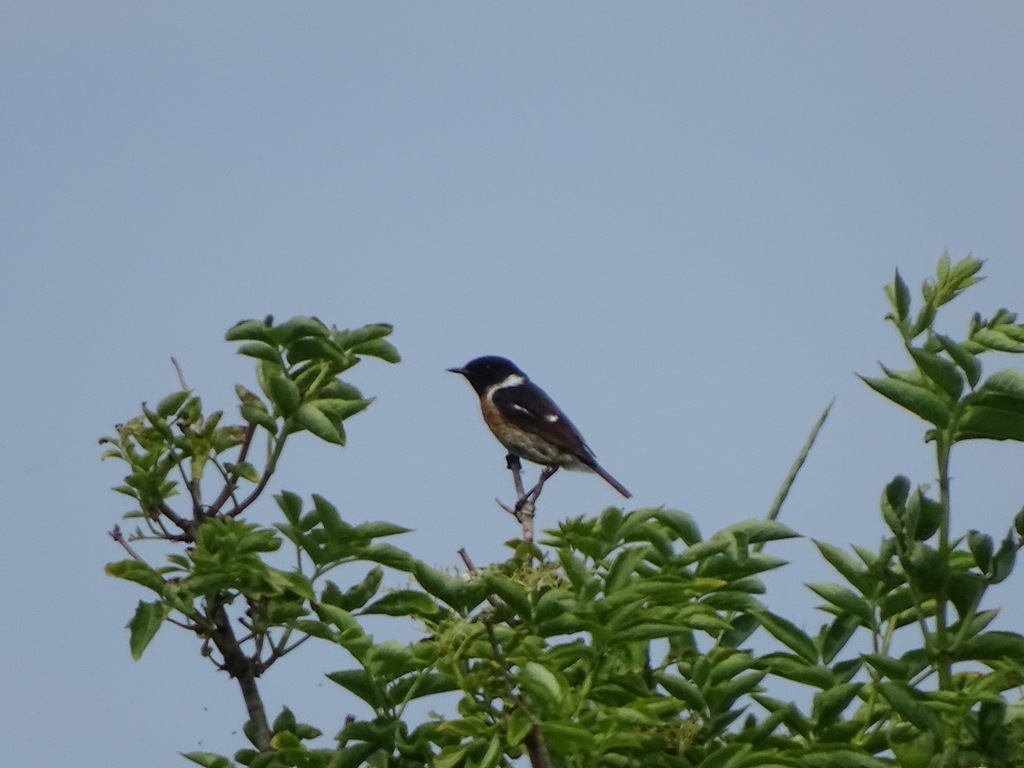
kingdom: Animalia
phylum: Chordata
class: Aves
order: Passeriformes
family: Muscicapidae
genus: Saxicola
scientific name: Saxicola rubicola
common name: European stonechat
